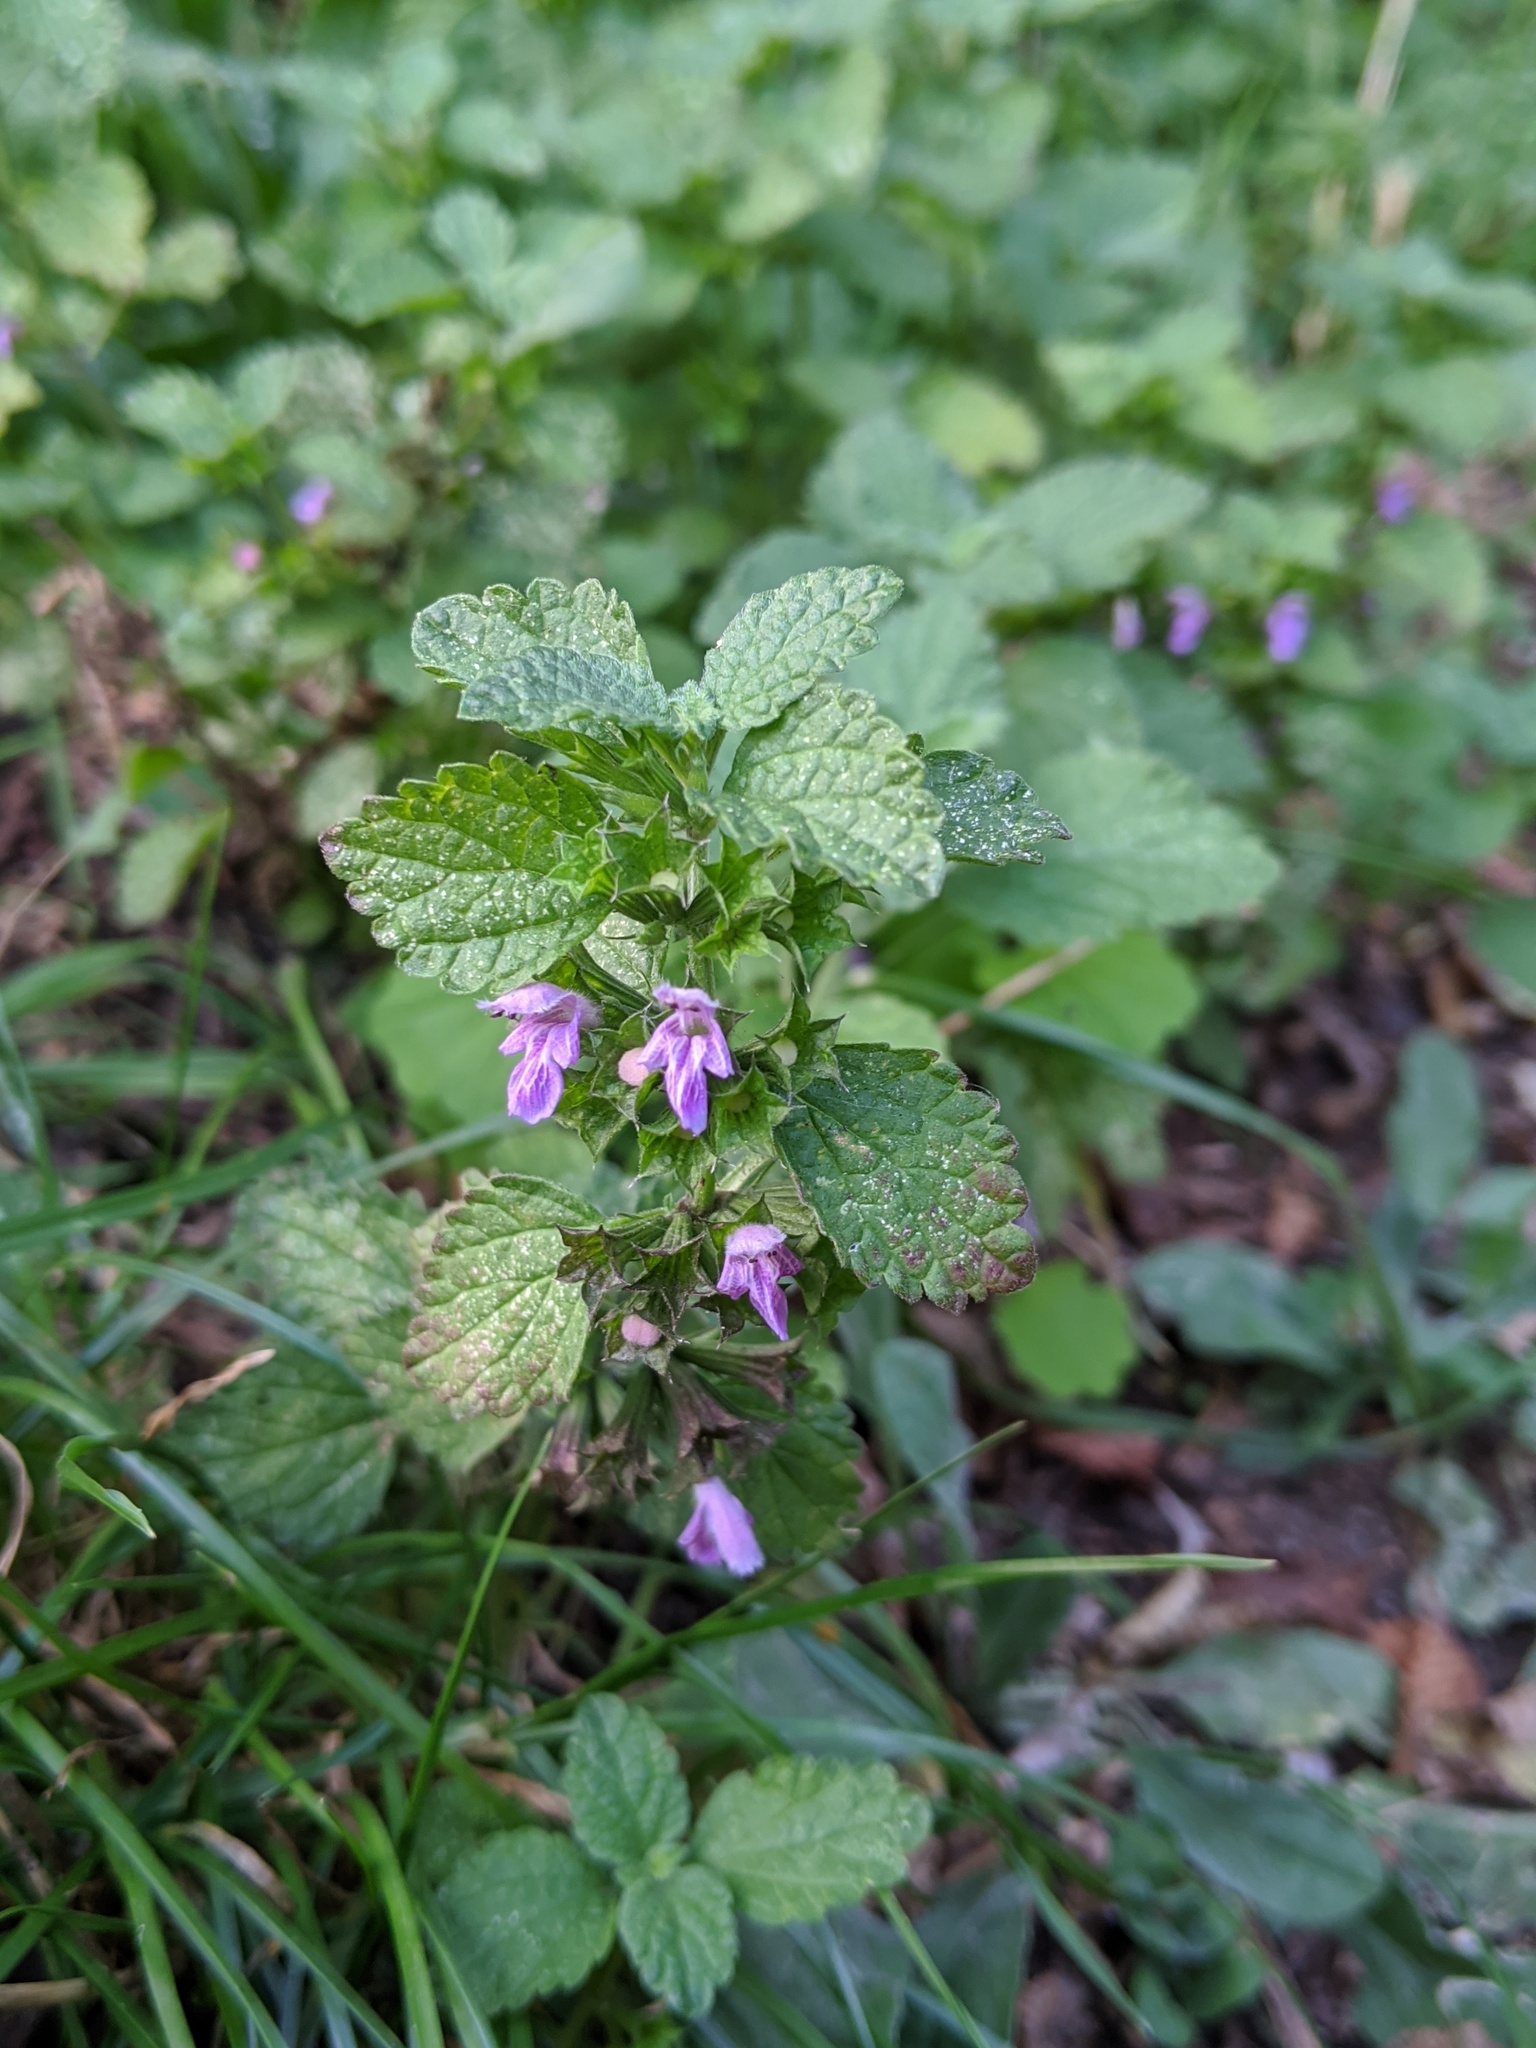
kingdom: Plantae
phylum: Tracheophyta
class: Magnoliopsida
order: Lamiales
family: Lamiaceae
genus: Ballota
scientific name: Ballota nigra
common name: Black horehound
